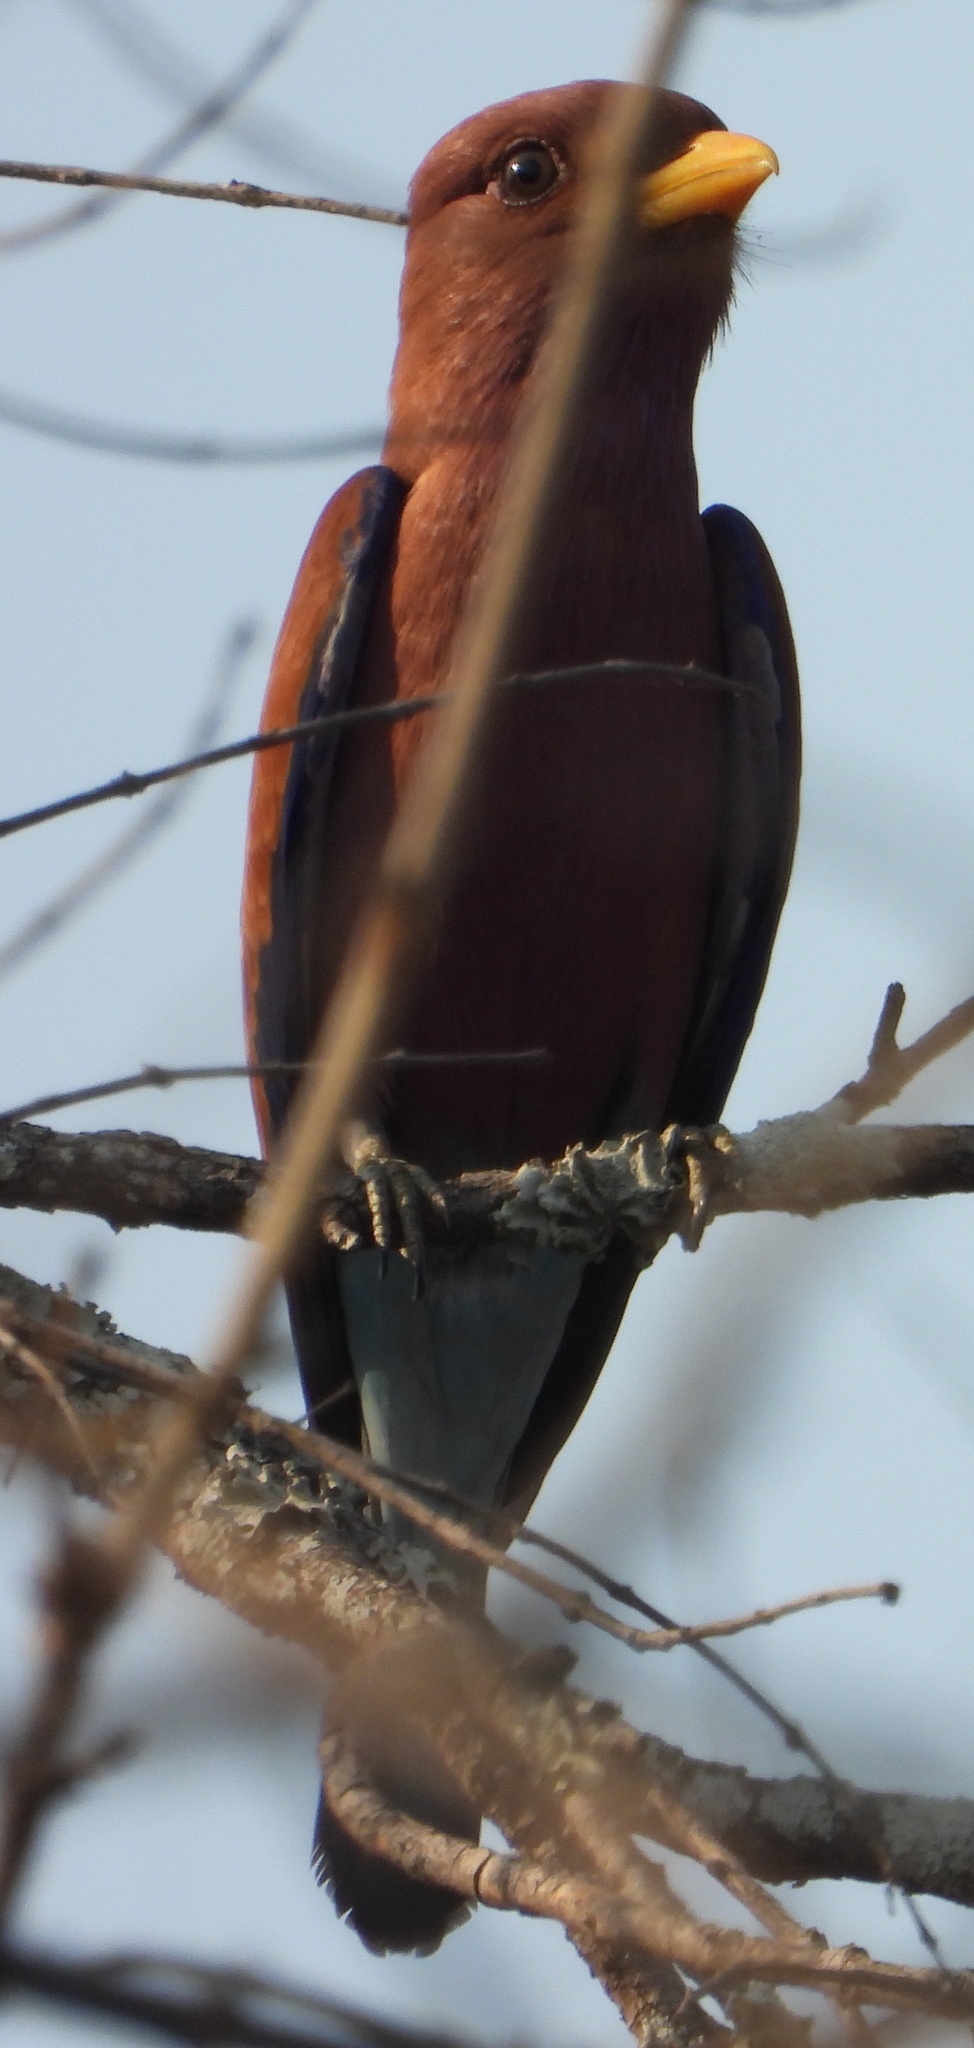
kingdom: Animalia
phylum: Chordata
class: Aves
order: Coraciiformes
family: Coraciidae
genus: Eurystomus
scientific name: Eurystomus glaucurus
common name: Broad-billed roller
